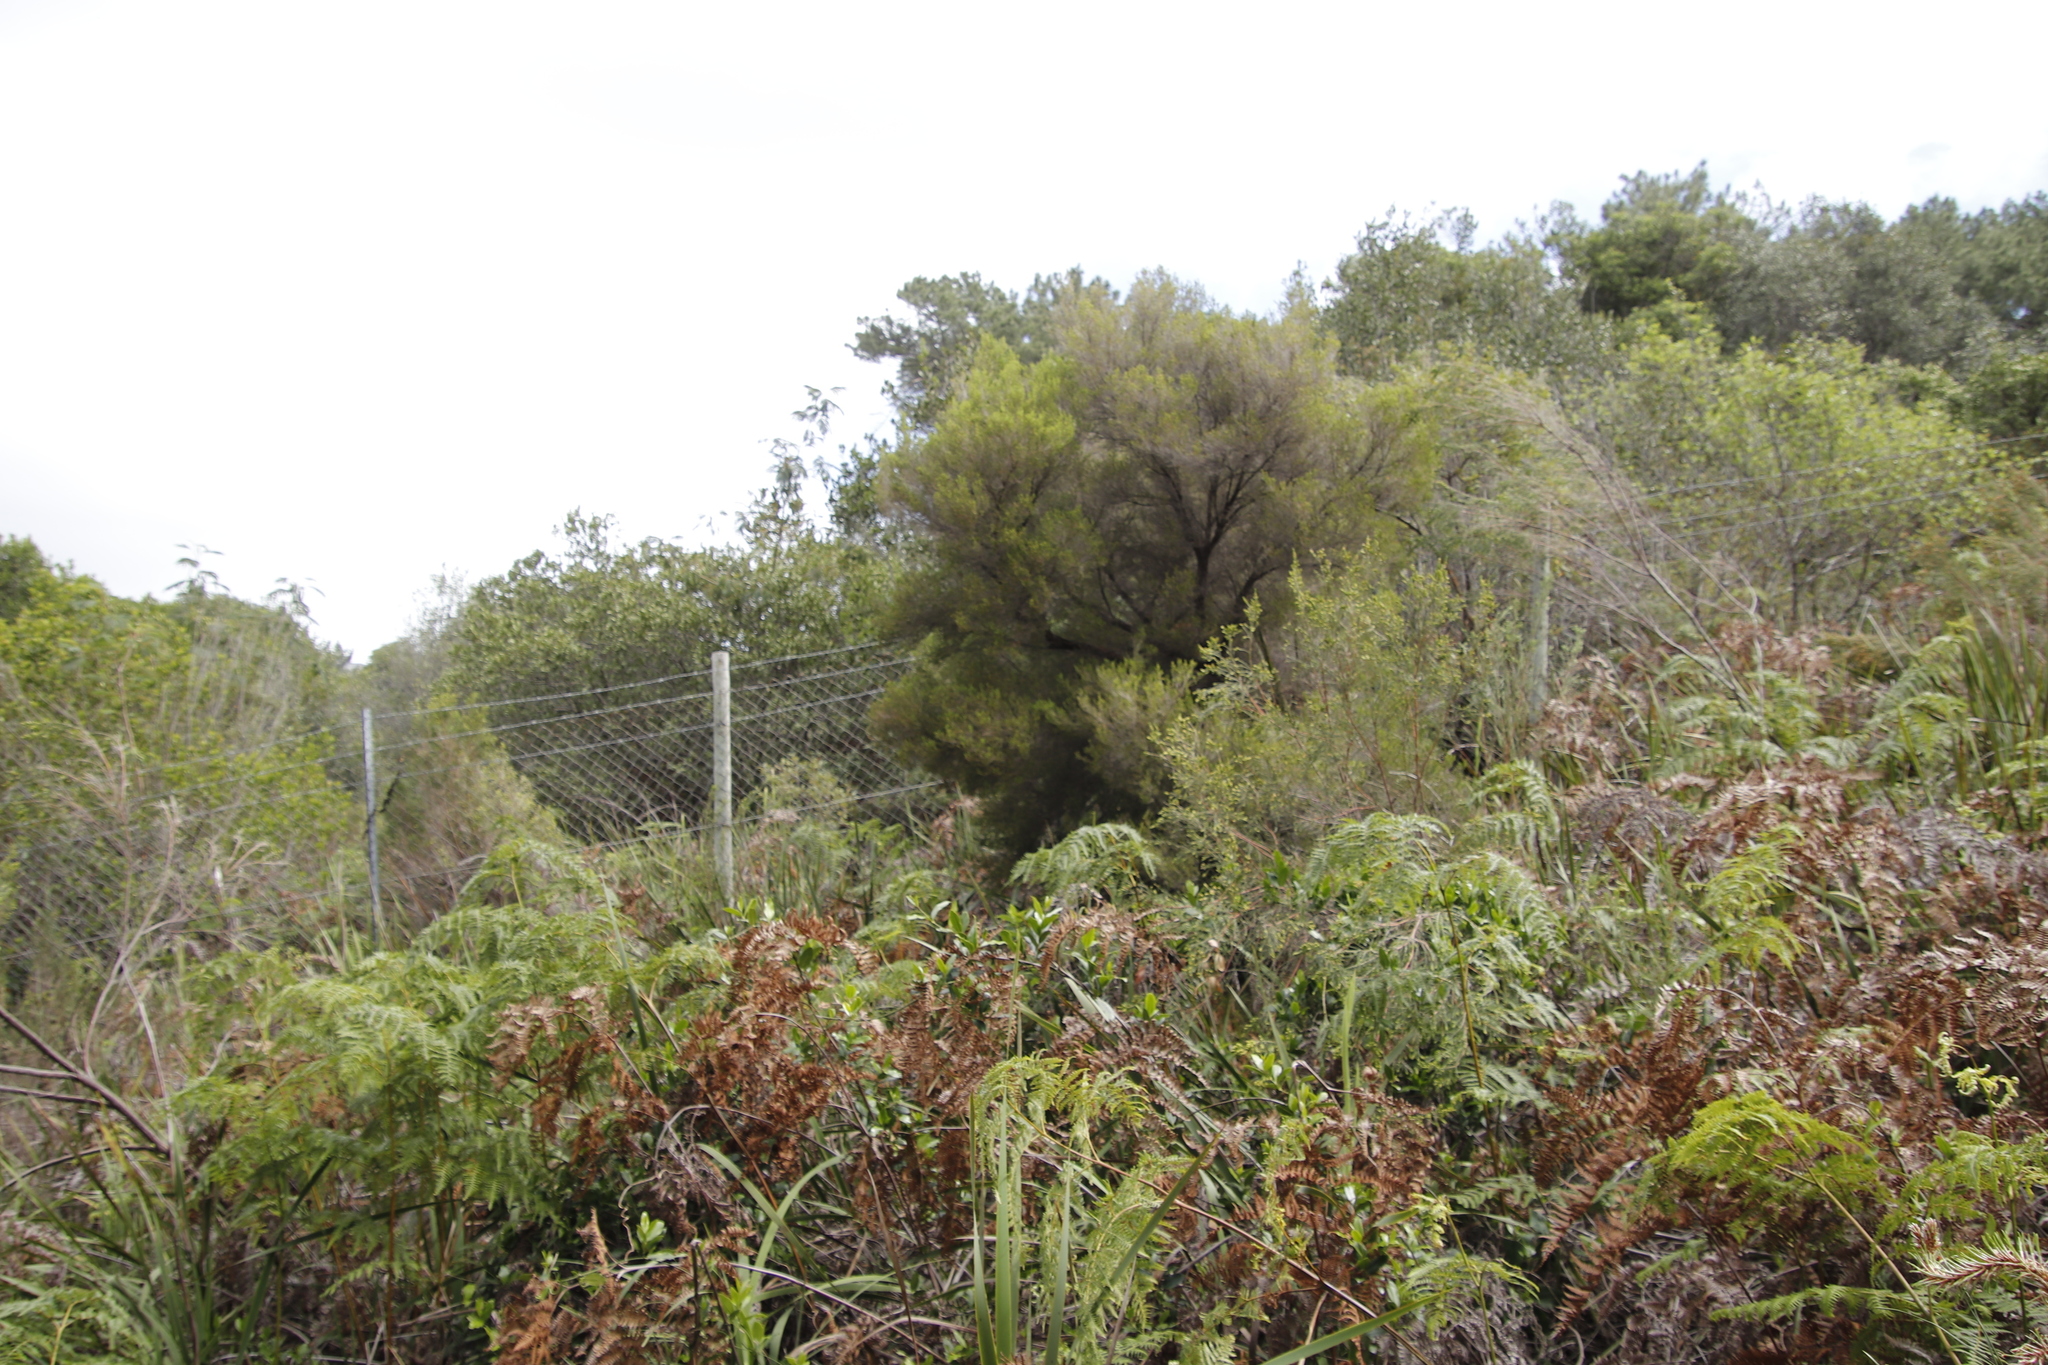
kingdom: Plantae
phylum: Tracheophyta
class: Magnoliopsida
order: Ericales
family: Ericaceae
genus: Erica
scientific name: Erica tristis
